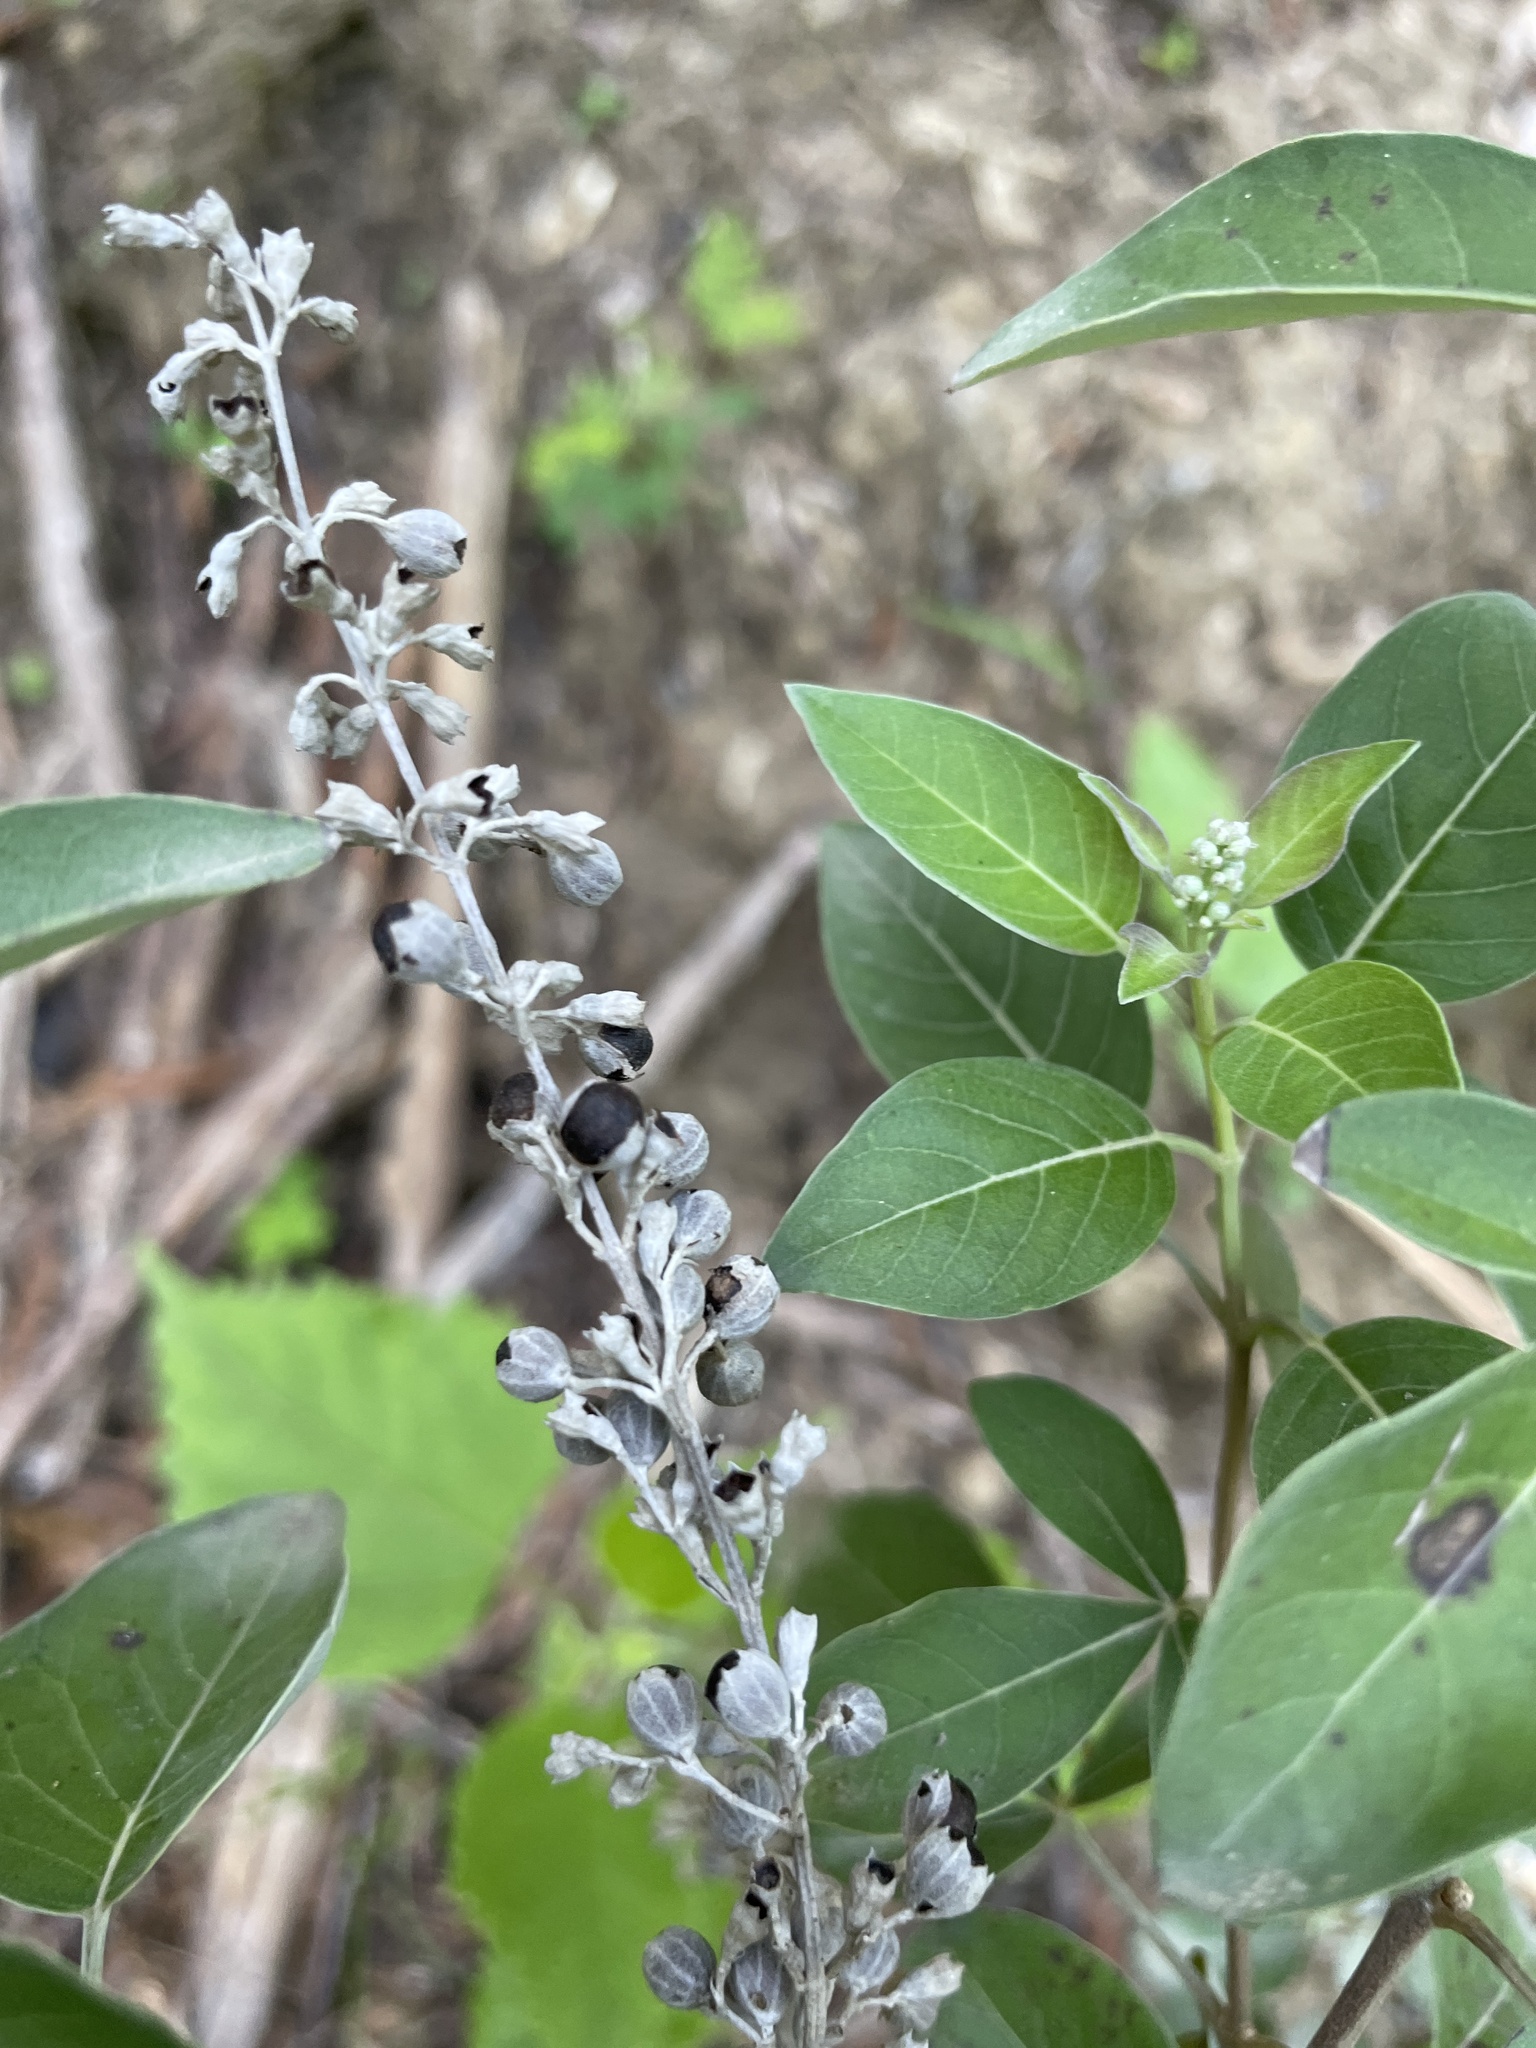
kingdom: Plantae
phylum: Tracheophyta
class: Magnoliopsida
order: Lamiales
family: Lamiaceae
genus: Vitex
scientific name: Vitex trifolia
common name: Simpleleaf chastetree
